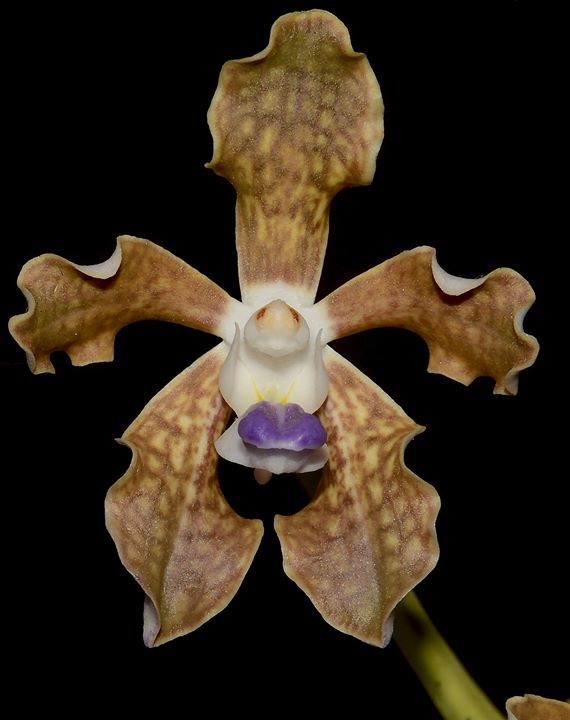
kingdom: Plantae
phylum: Tracheophyta
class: Liliopsida
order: Asparagales
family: Orchidaceae
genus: Vanda
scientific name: Vanda tessellata
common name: Grey orchid
